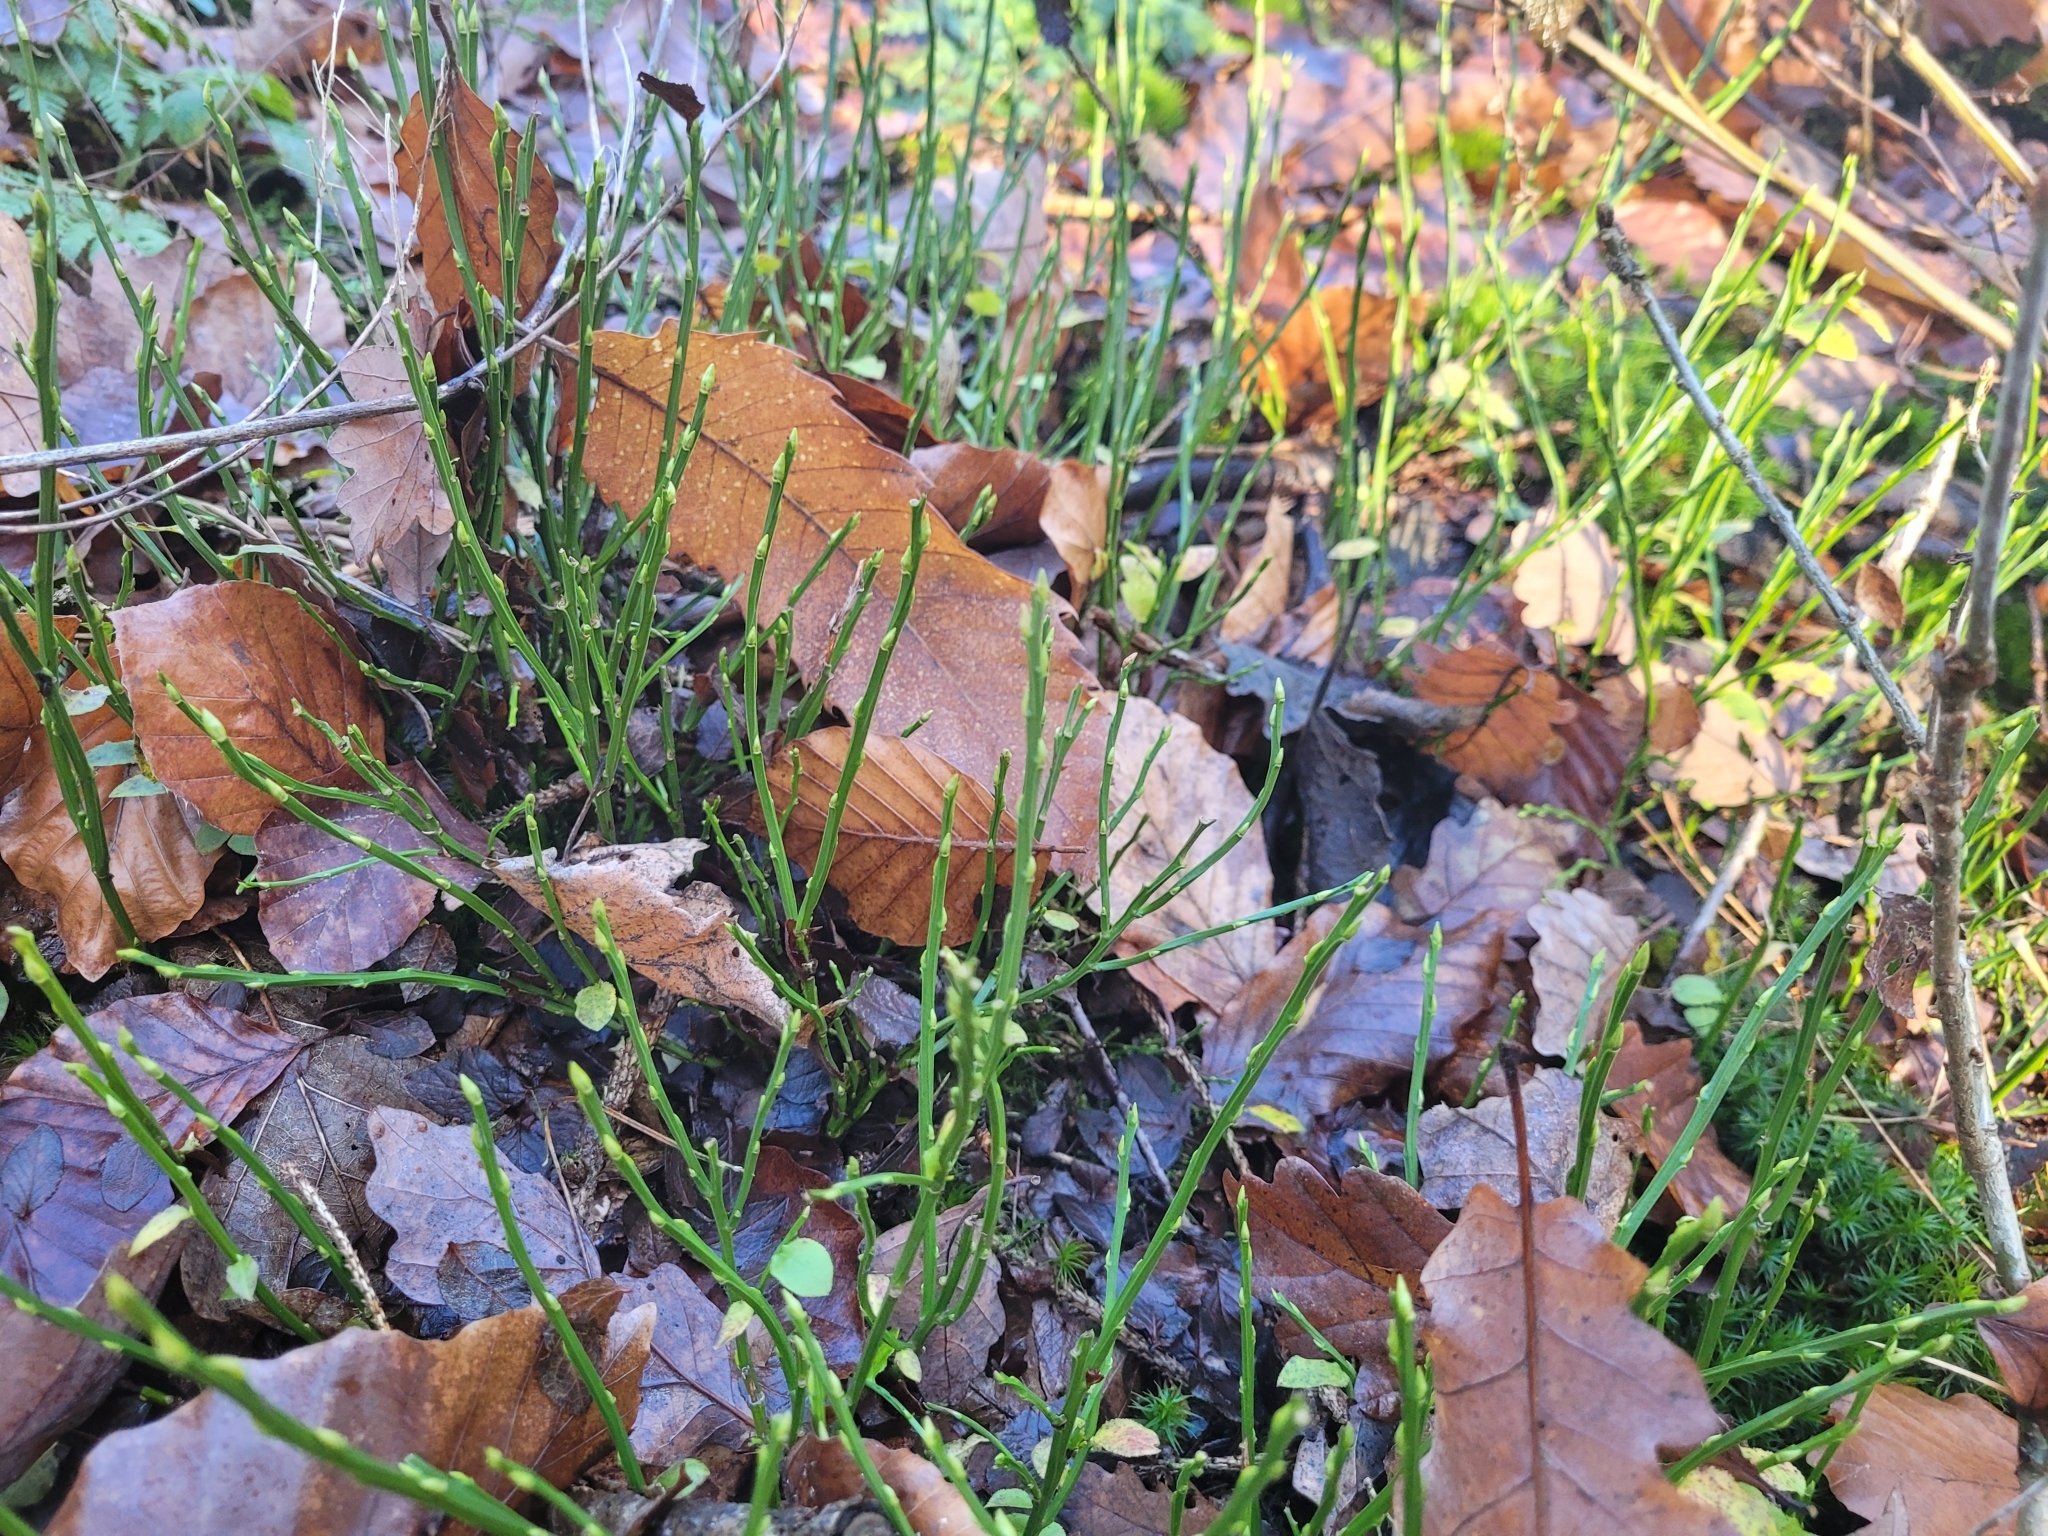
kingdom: Plantae
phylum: Tracheophyta
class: Magnoliopsida
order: Ericales
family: Ericaceae
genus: Vaccinium
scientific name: Vaccinium myrtillus
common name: Bilberry
